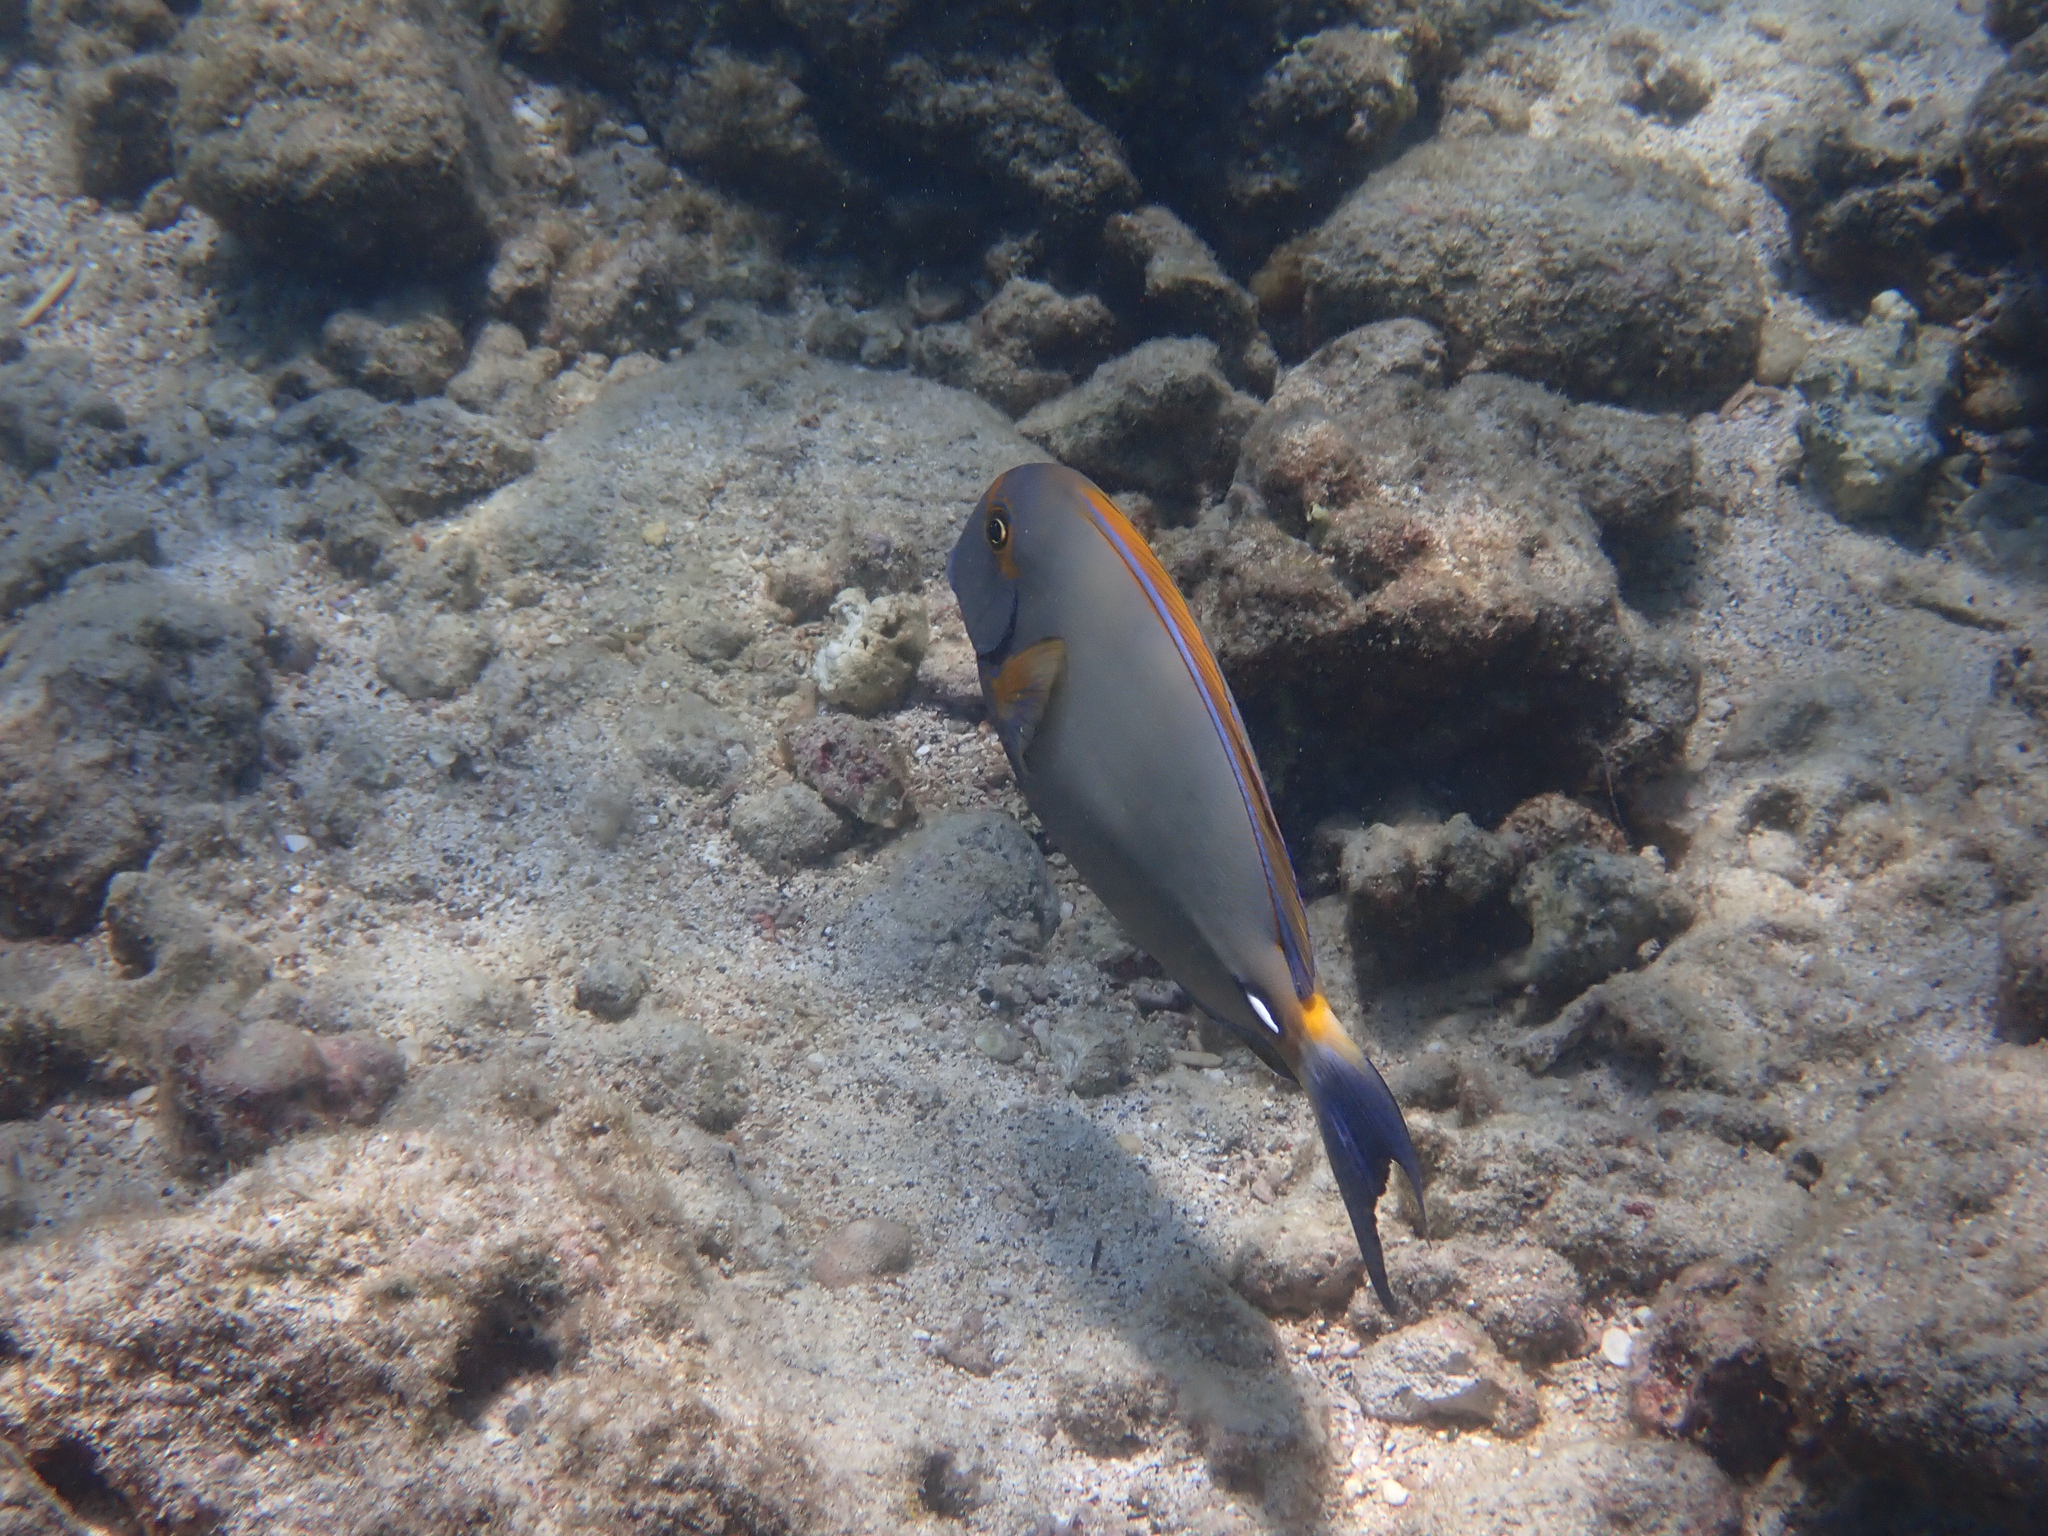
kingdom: Animalia
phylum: Chordata
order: Perciformes
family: Acanthuridae
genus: Acanthurus
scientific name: Acanthurus dussumieri
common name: Dussumier's surgeonfish
